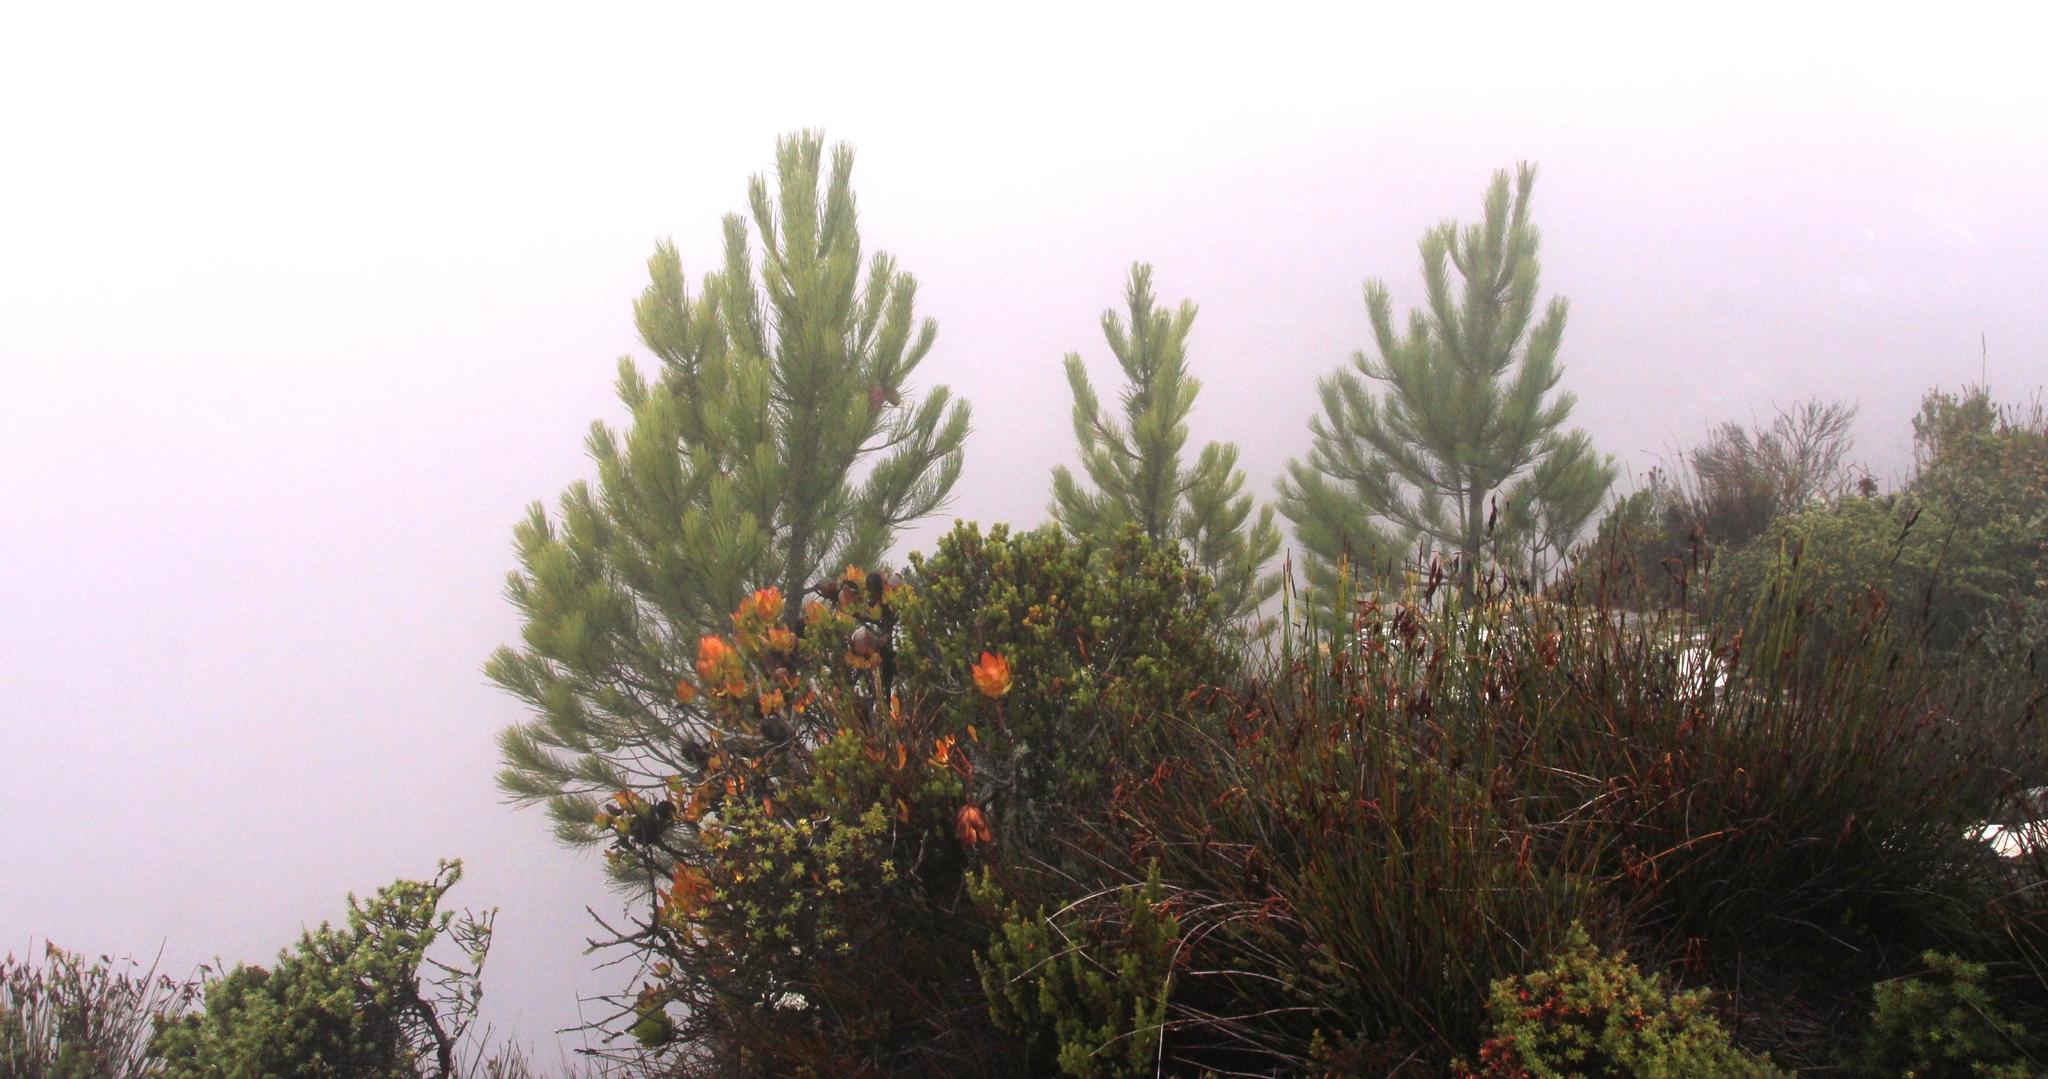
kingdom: Plantae
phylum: Tracheophyta
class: Pinopsida
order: Pinales
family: Pinaceae
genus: Pinus
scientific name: Pinus pinaster
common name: Maritime pine
